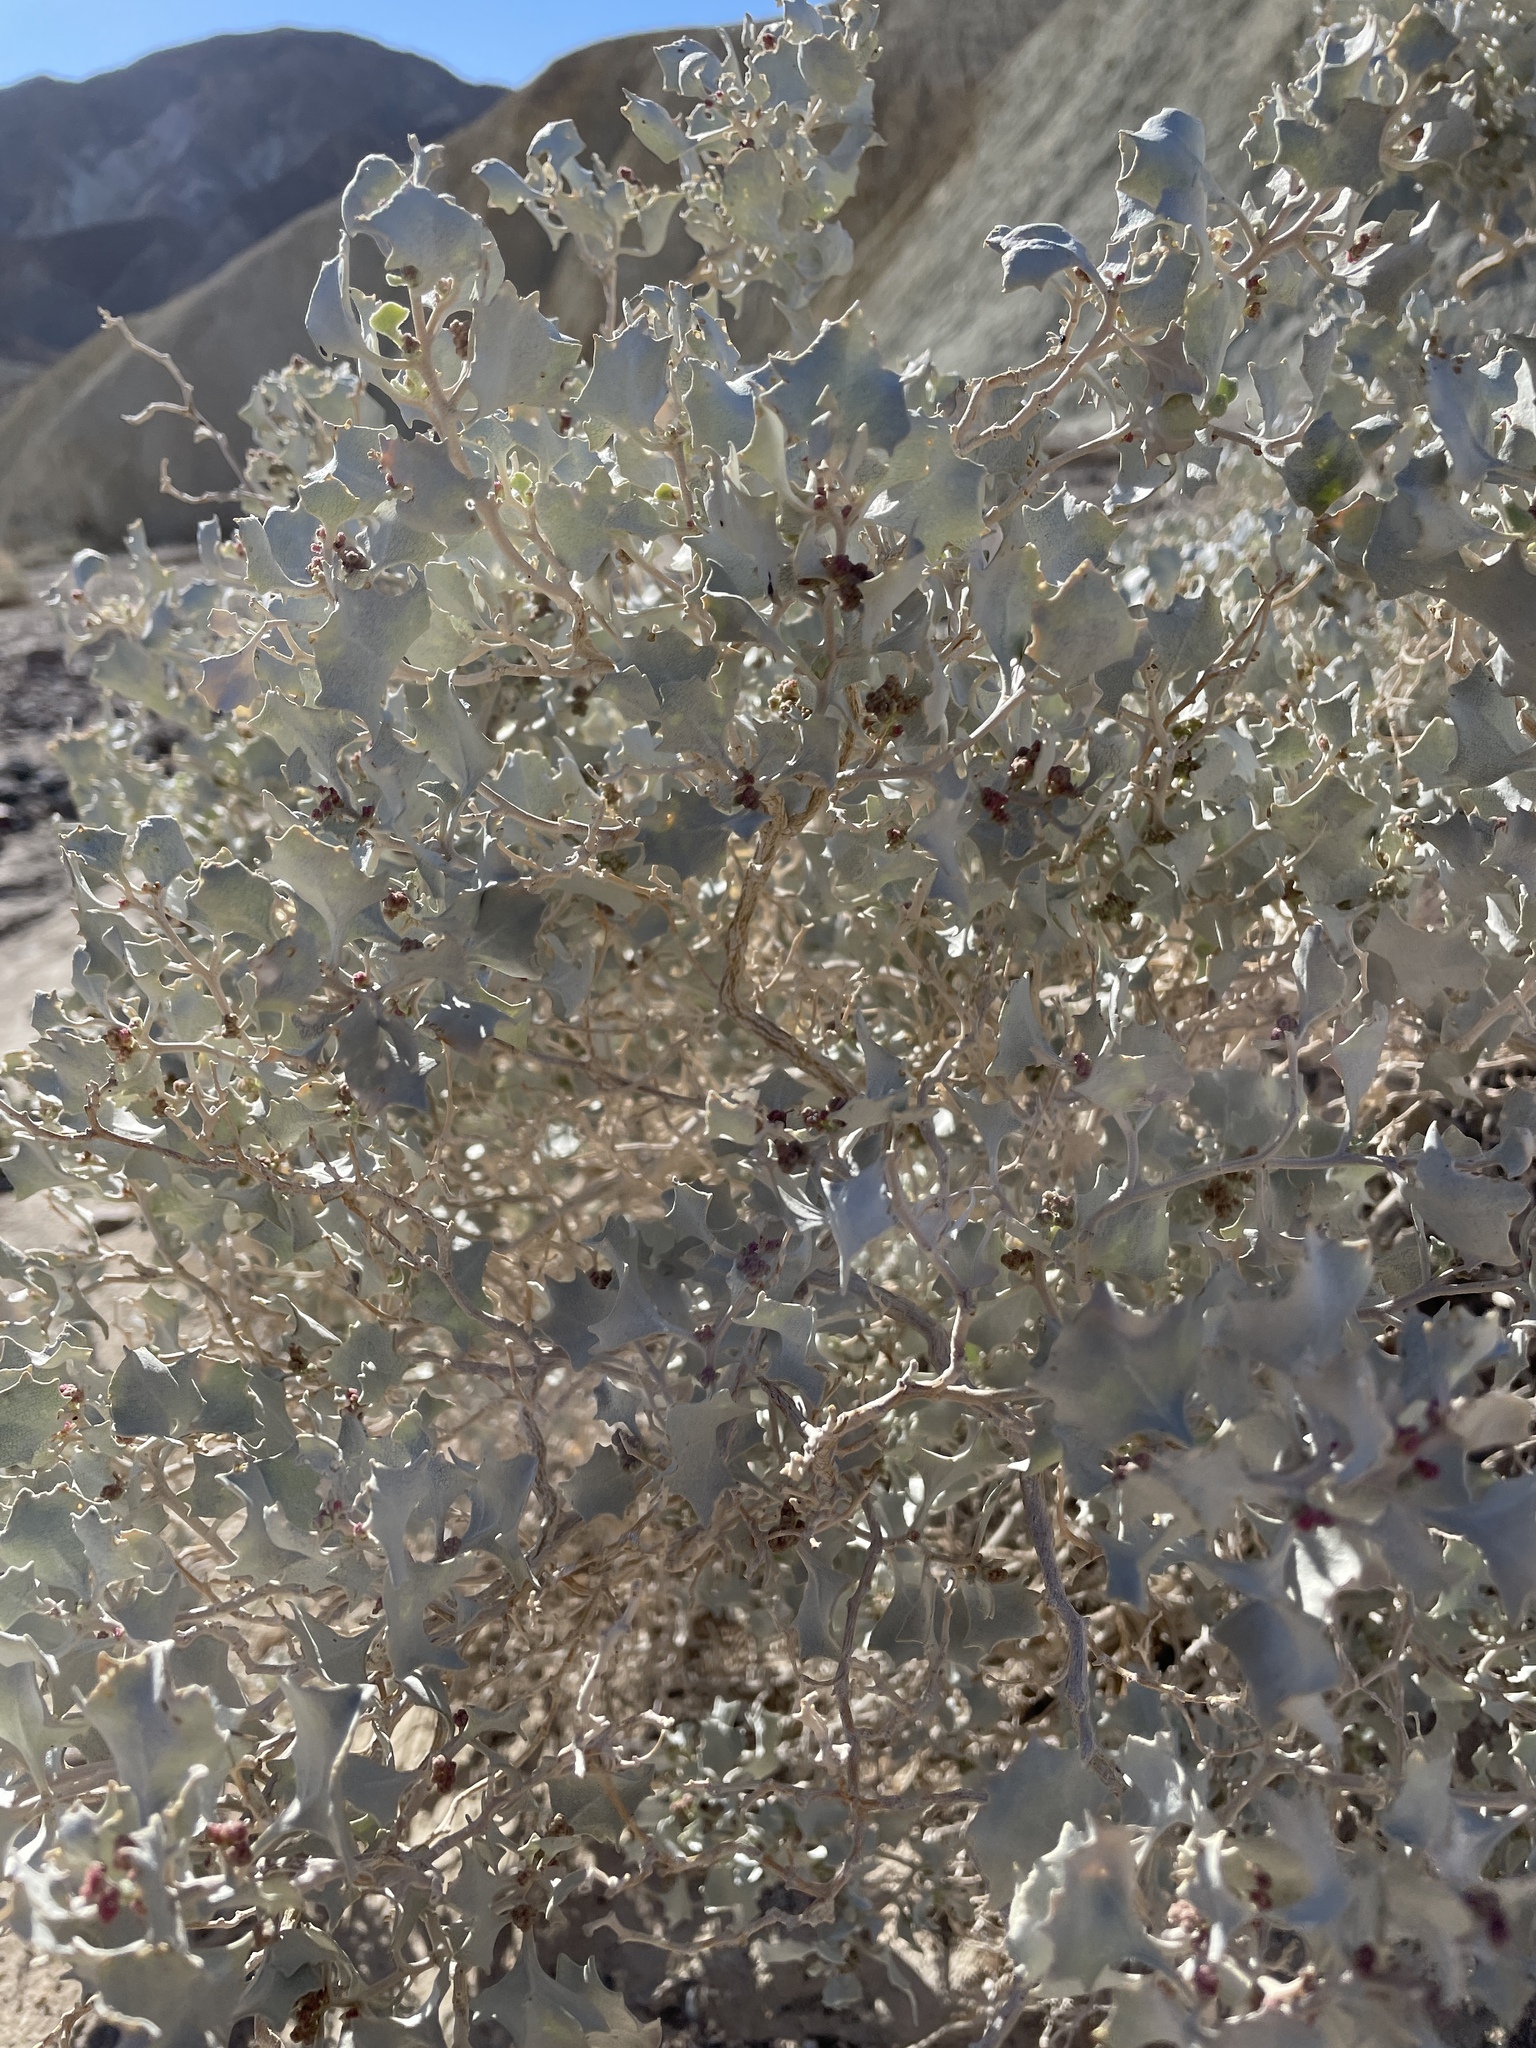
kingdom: Plantae
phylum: Tracheophyta
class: Magnoliopsida
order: Caryophyllales
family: Amaranthaceae
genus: Atriplex
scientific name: Atriplex hymenelytra
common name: Desert-holly
